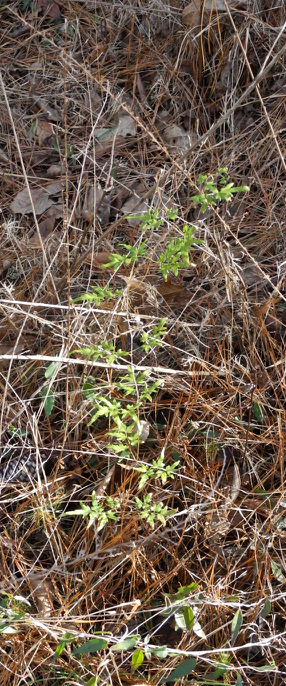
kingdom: Plantae
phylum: Tracheophyta
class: Polypodiopsida
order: Schizaeales
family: Lygodiaceae
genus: Lygodium
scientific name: Lygodium japonicum
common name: Japanese climbing fern
